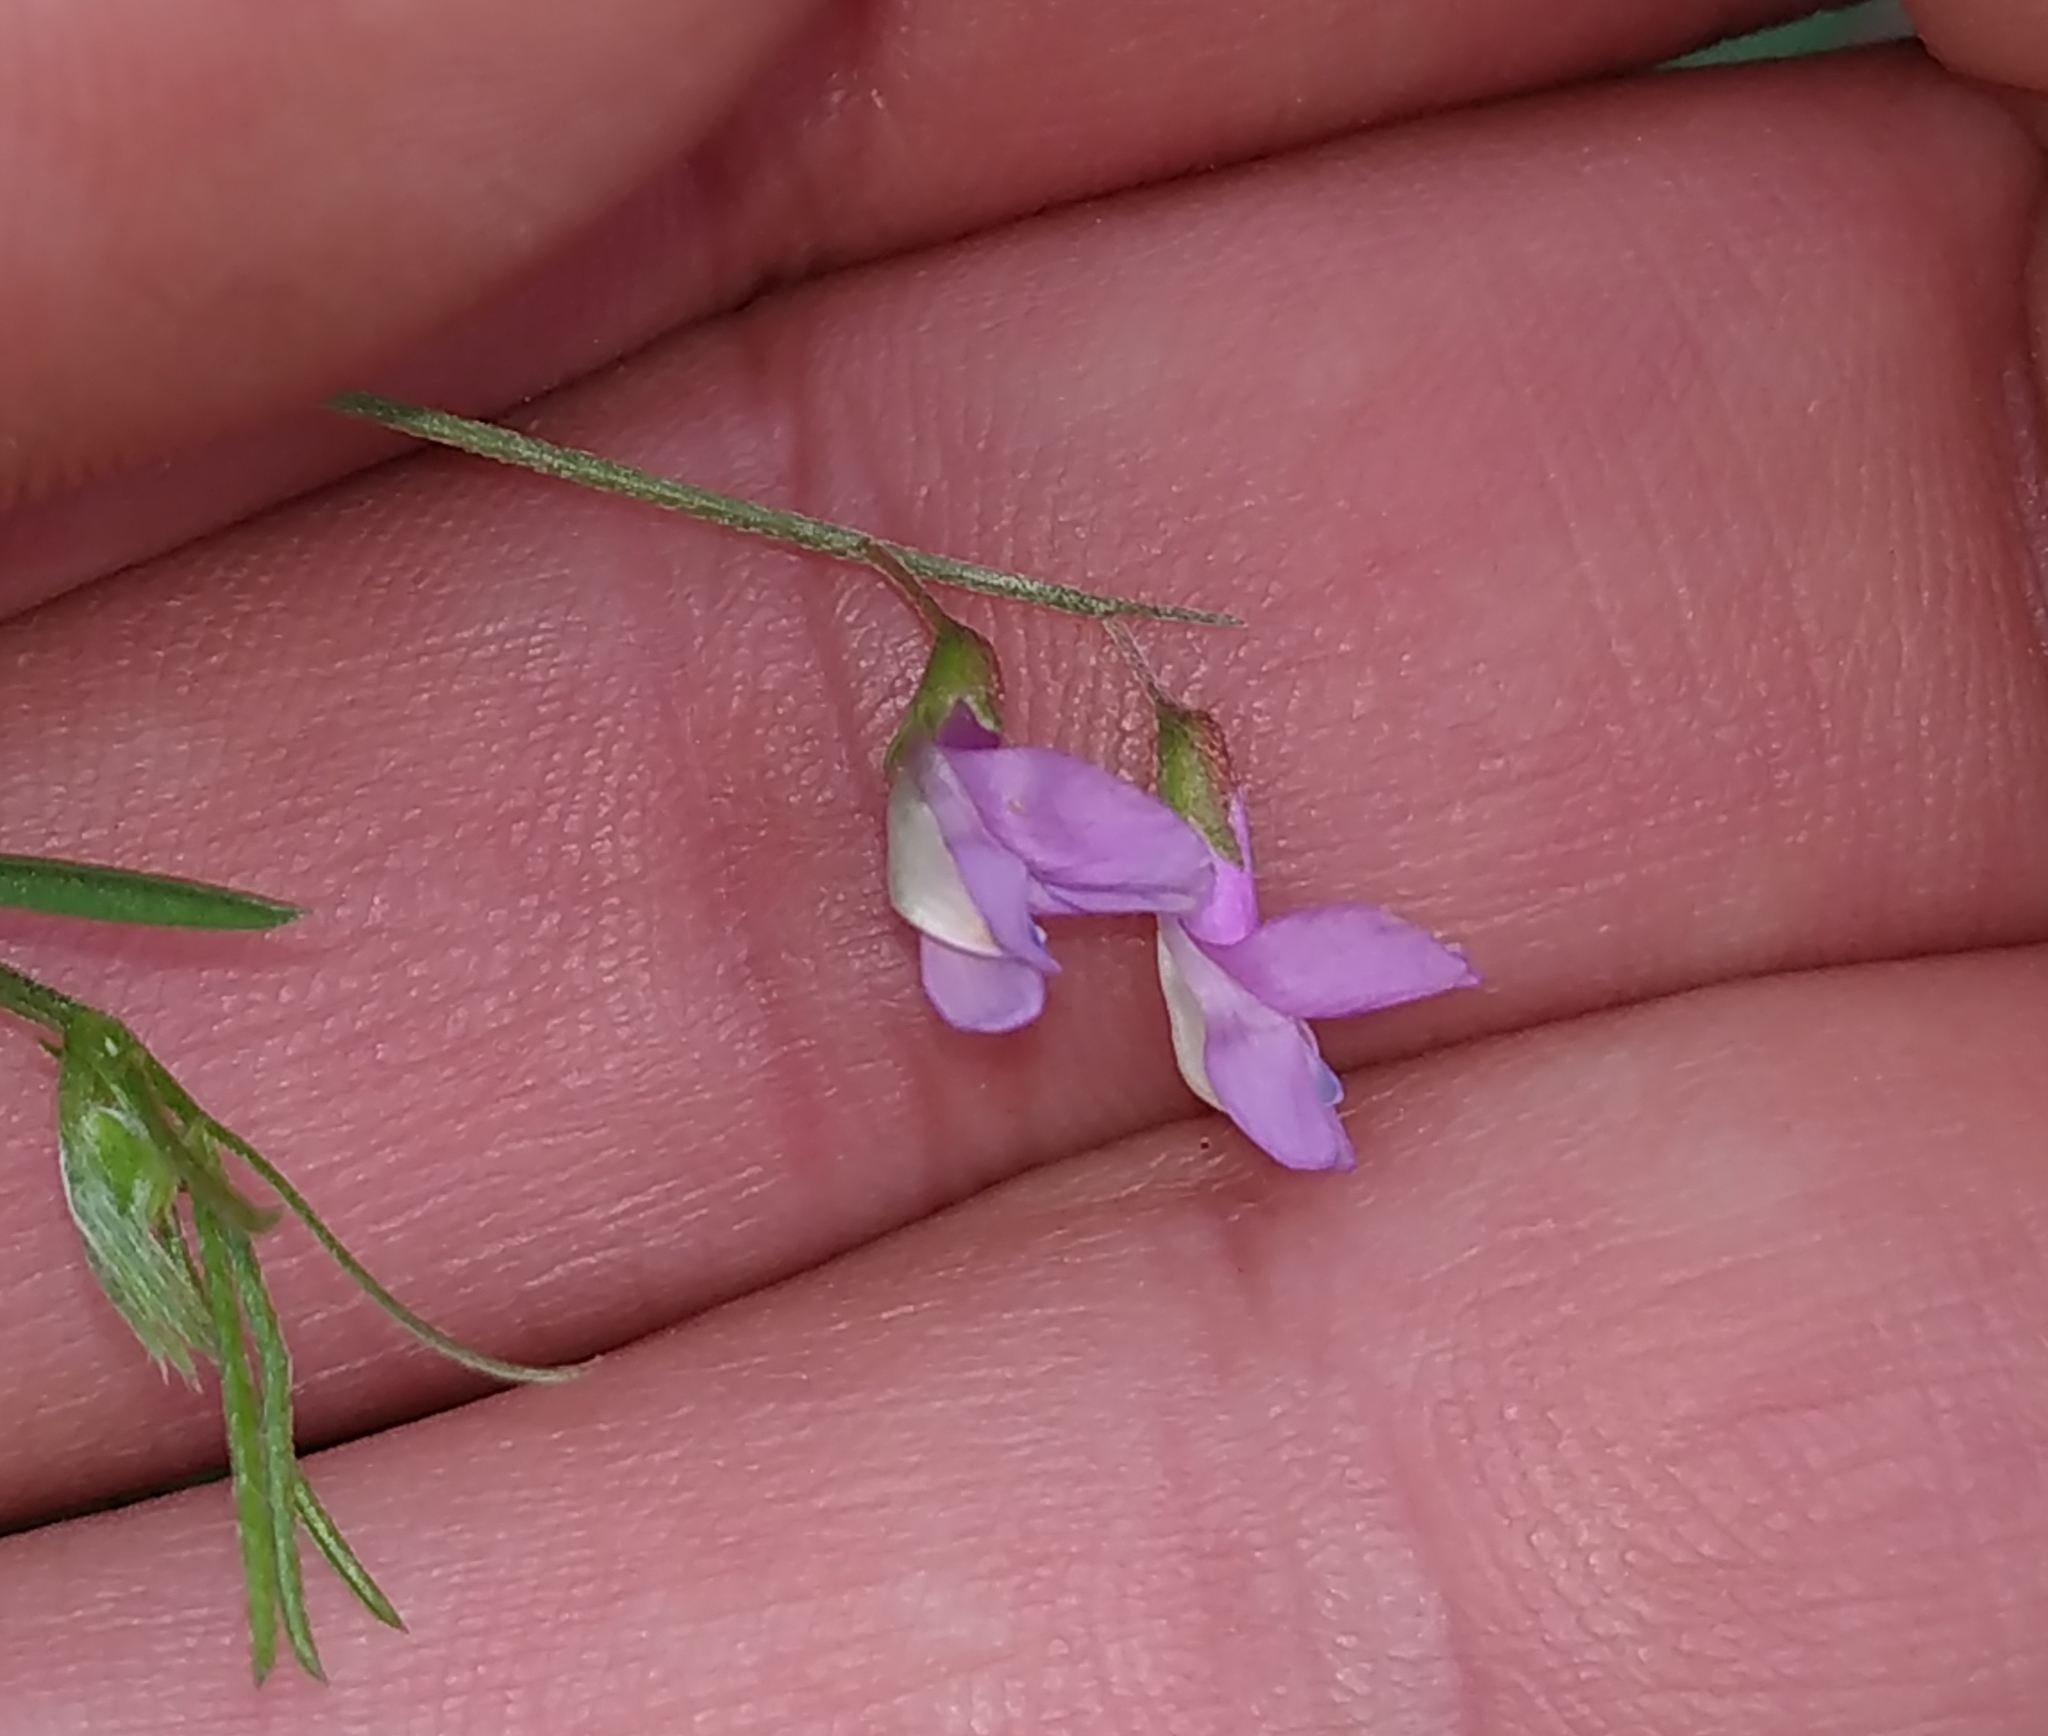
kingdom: Plantae
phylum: Tracheophyta
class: Magnoliopsida
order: Fabales
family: Fabaceae
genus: Vicia
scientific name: Vicia parviflora
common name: Slender tare
